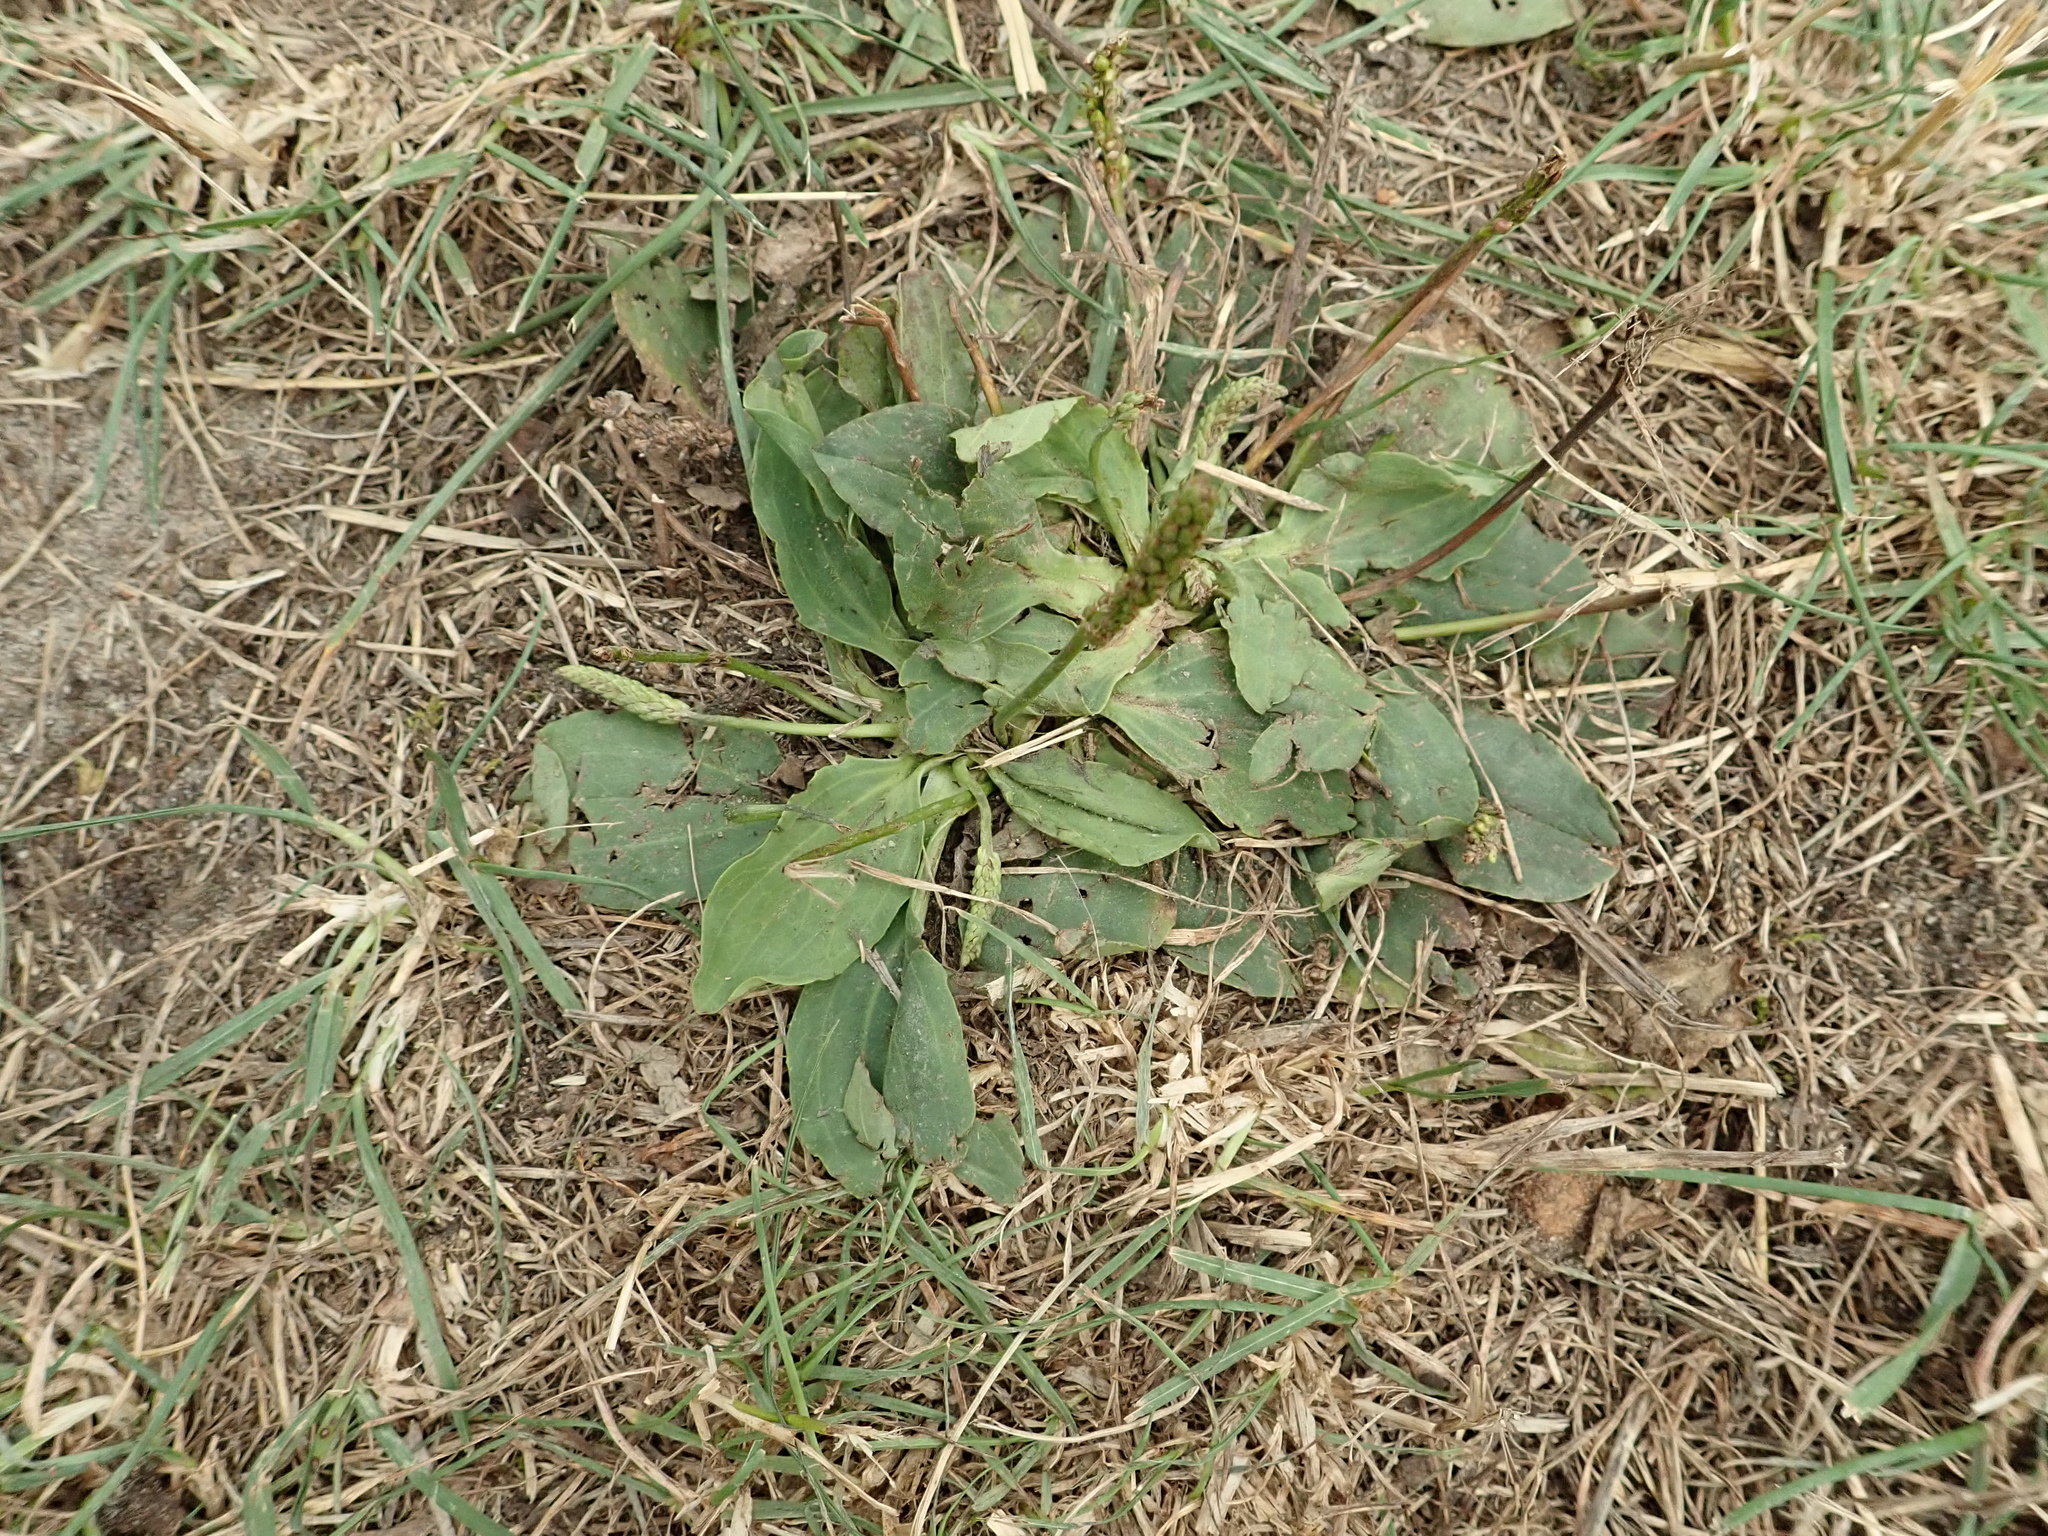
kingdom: Plantae
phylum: Tracheophyta
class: Magnoliopsida
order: Lamiales
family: Plantaginaceae
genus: Plantago
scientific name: Plantago major
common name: Common plantain
